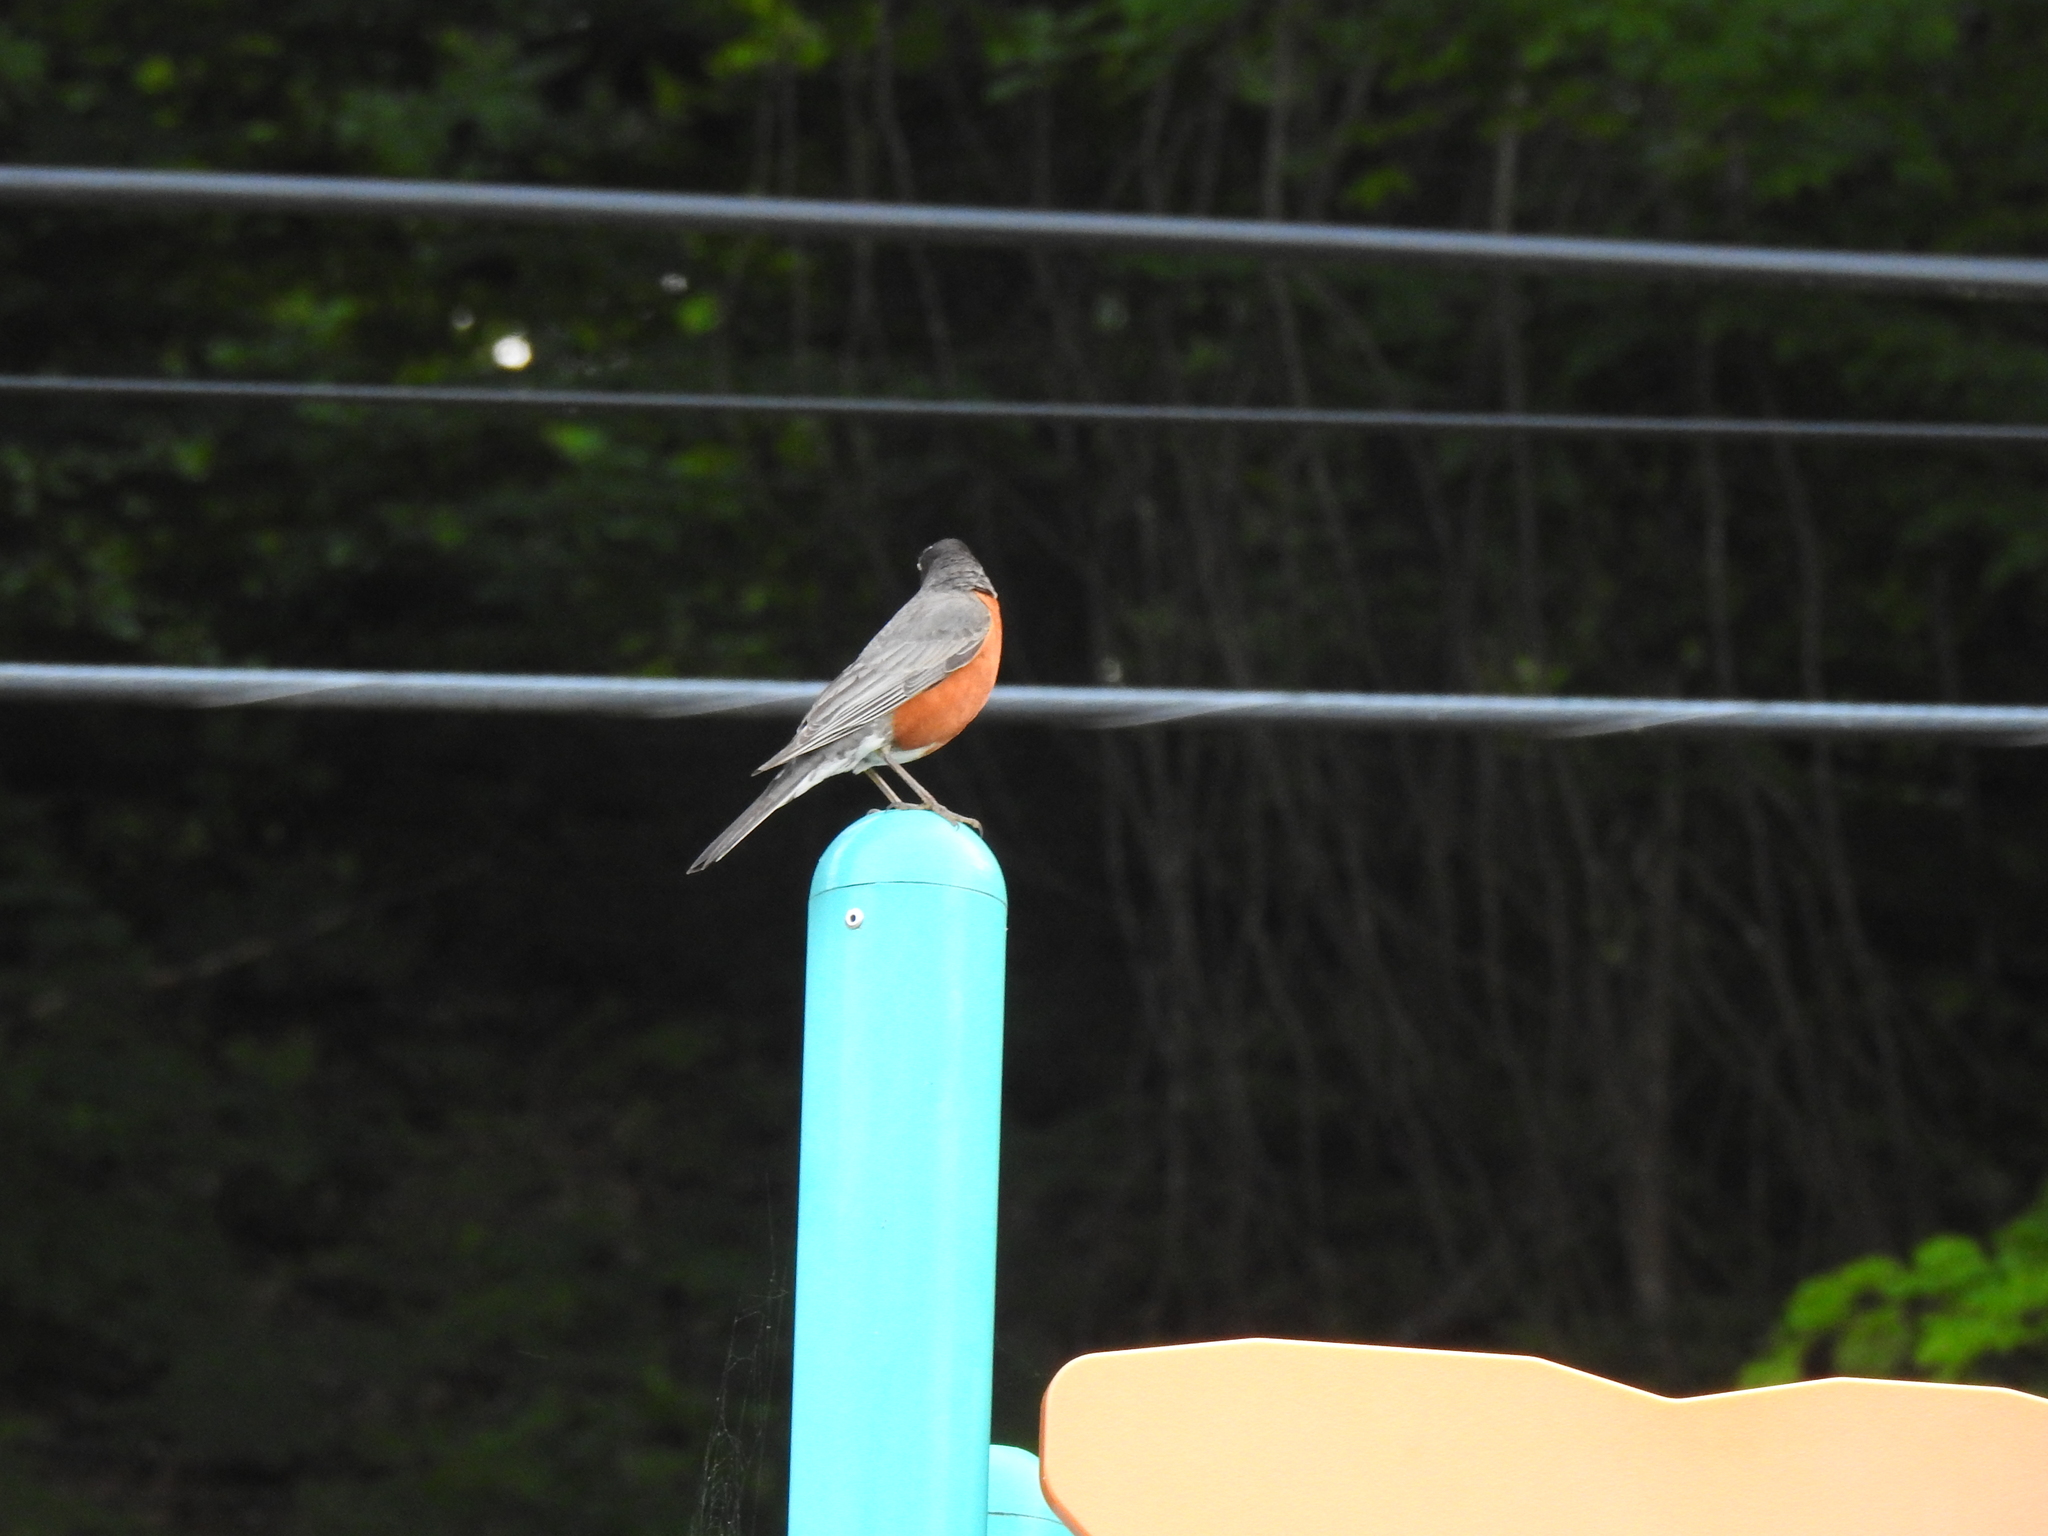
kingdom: Animalia
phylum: Chordata
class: Aves
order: Passeriformes
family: Turdidae
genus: Turdus
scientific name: Turdus migratorius
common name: American robin
